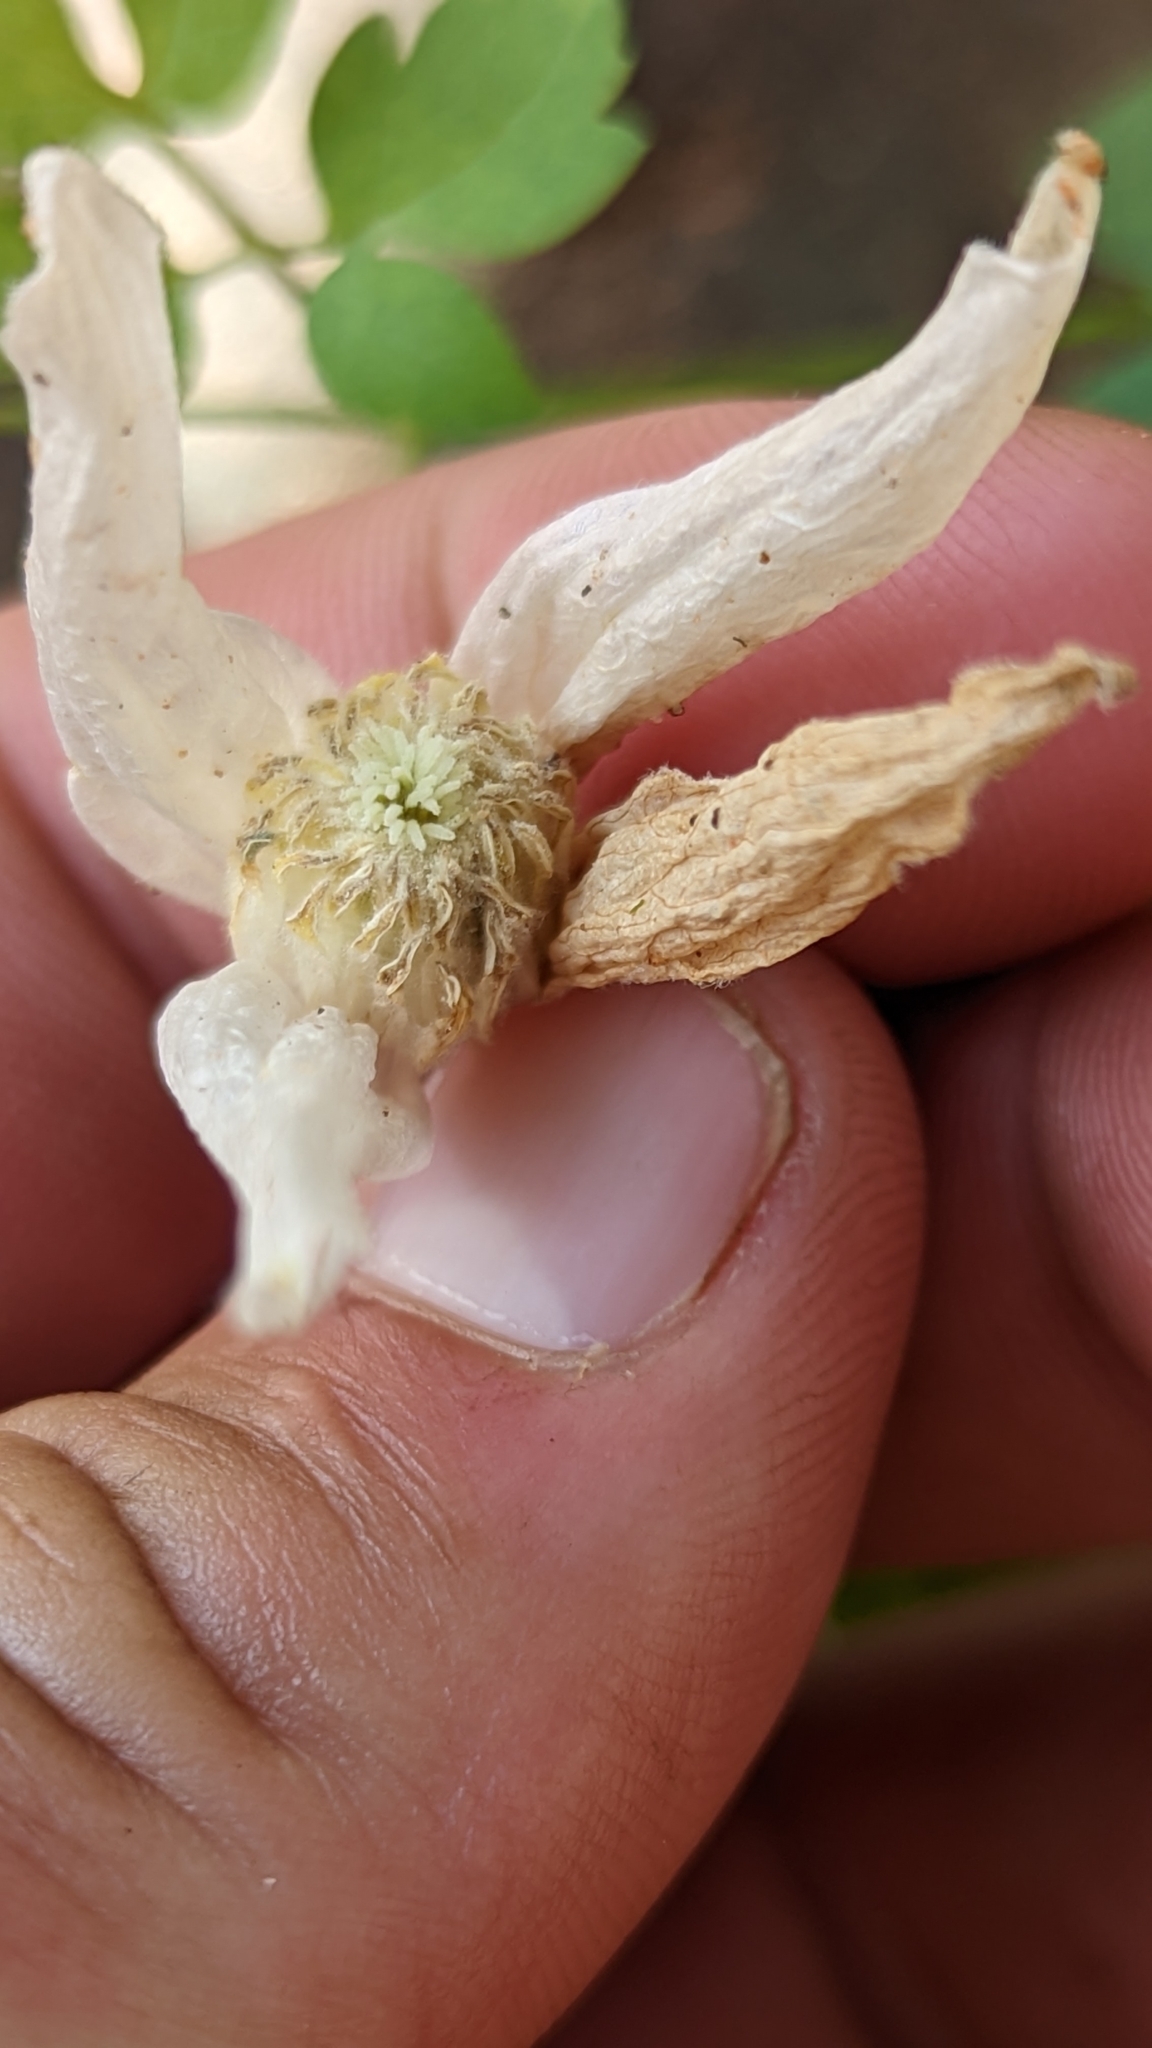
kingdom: Plantae
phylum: Tracheophyta
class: Magnoliopsida
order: Ranunculales
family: Ranunculaceae
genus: Clematis
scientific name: Clematis columbiana
